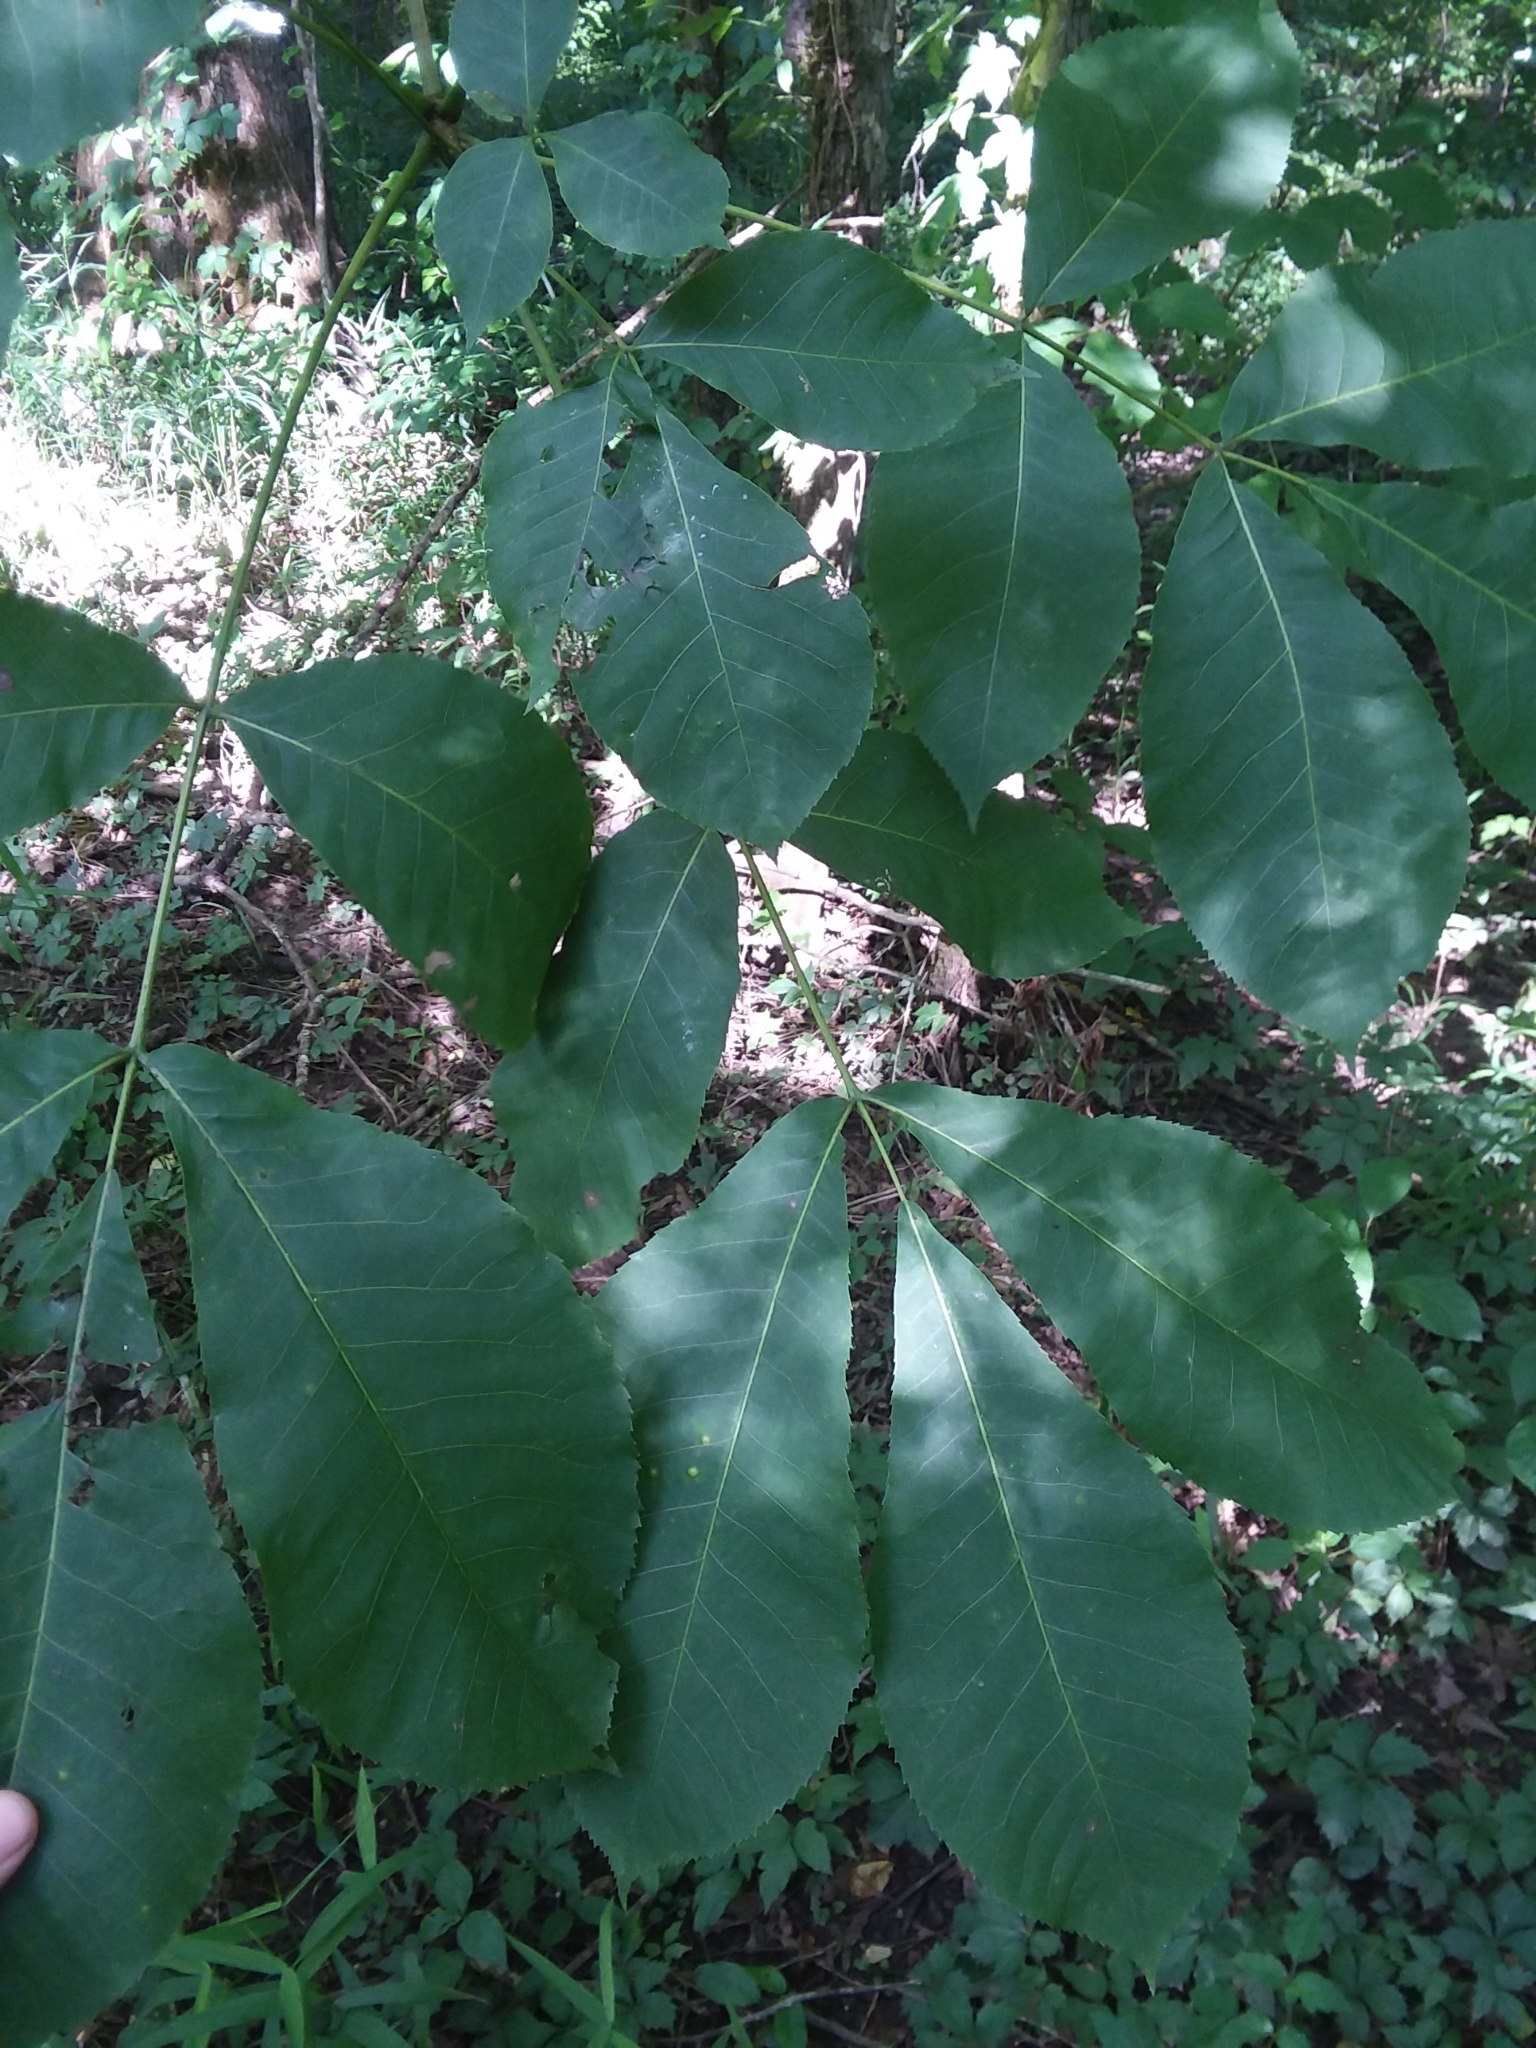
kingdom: Plantae
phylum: Tracheophyta
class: Magnoliopsida
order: Fagales
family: Juglandaceae
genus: Carya
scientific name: Carya ovata
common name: Shagbark hickory
